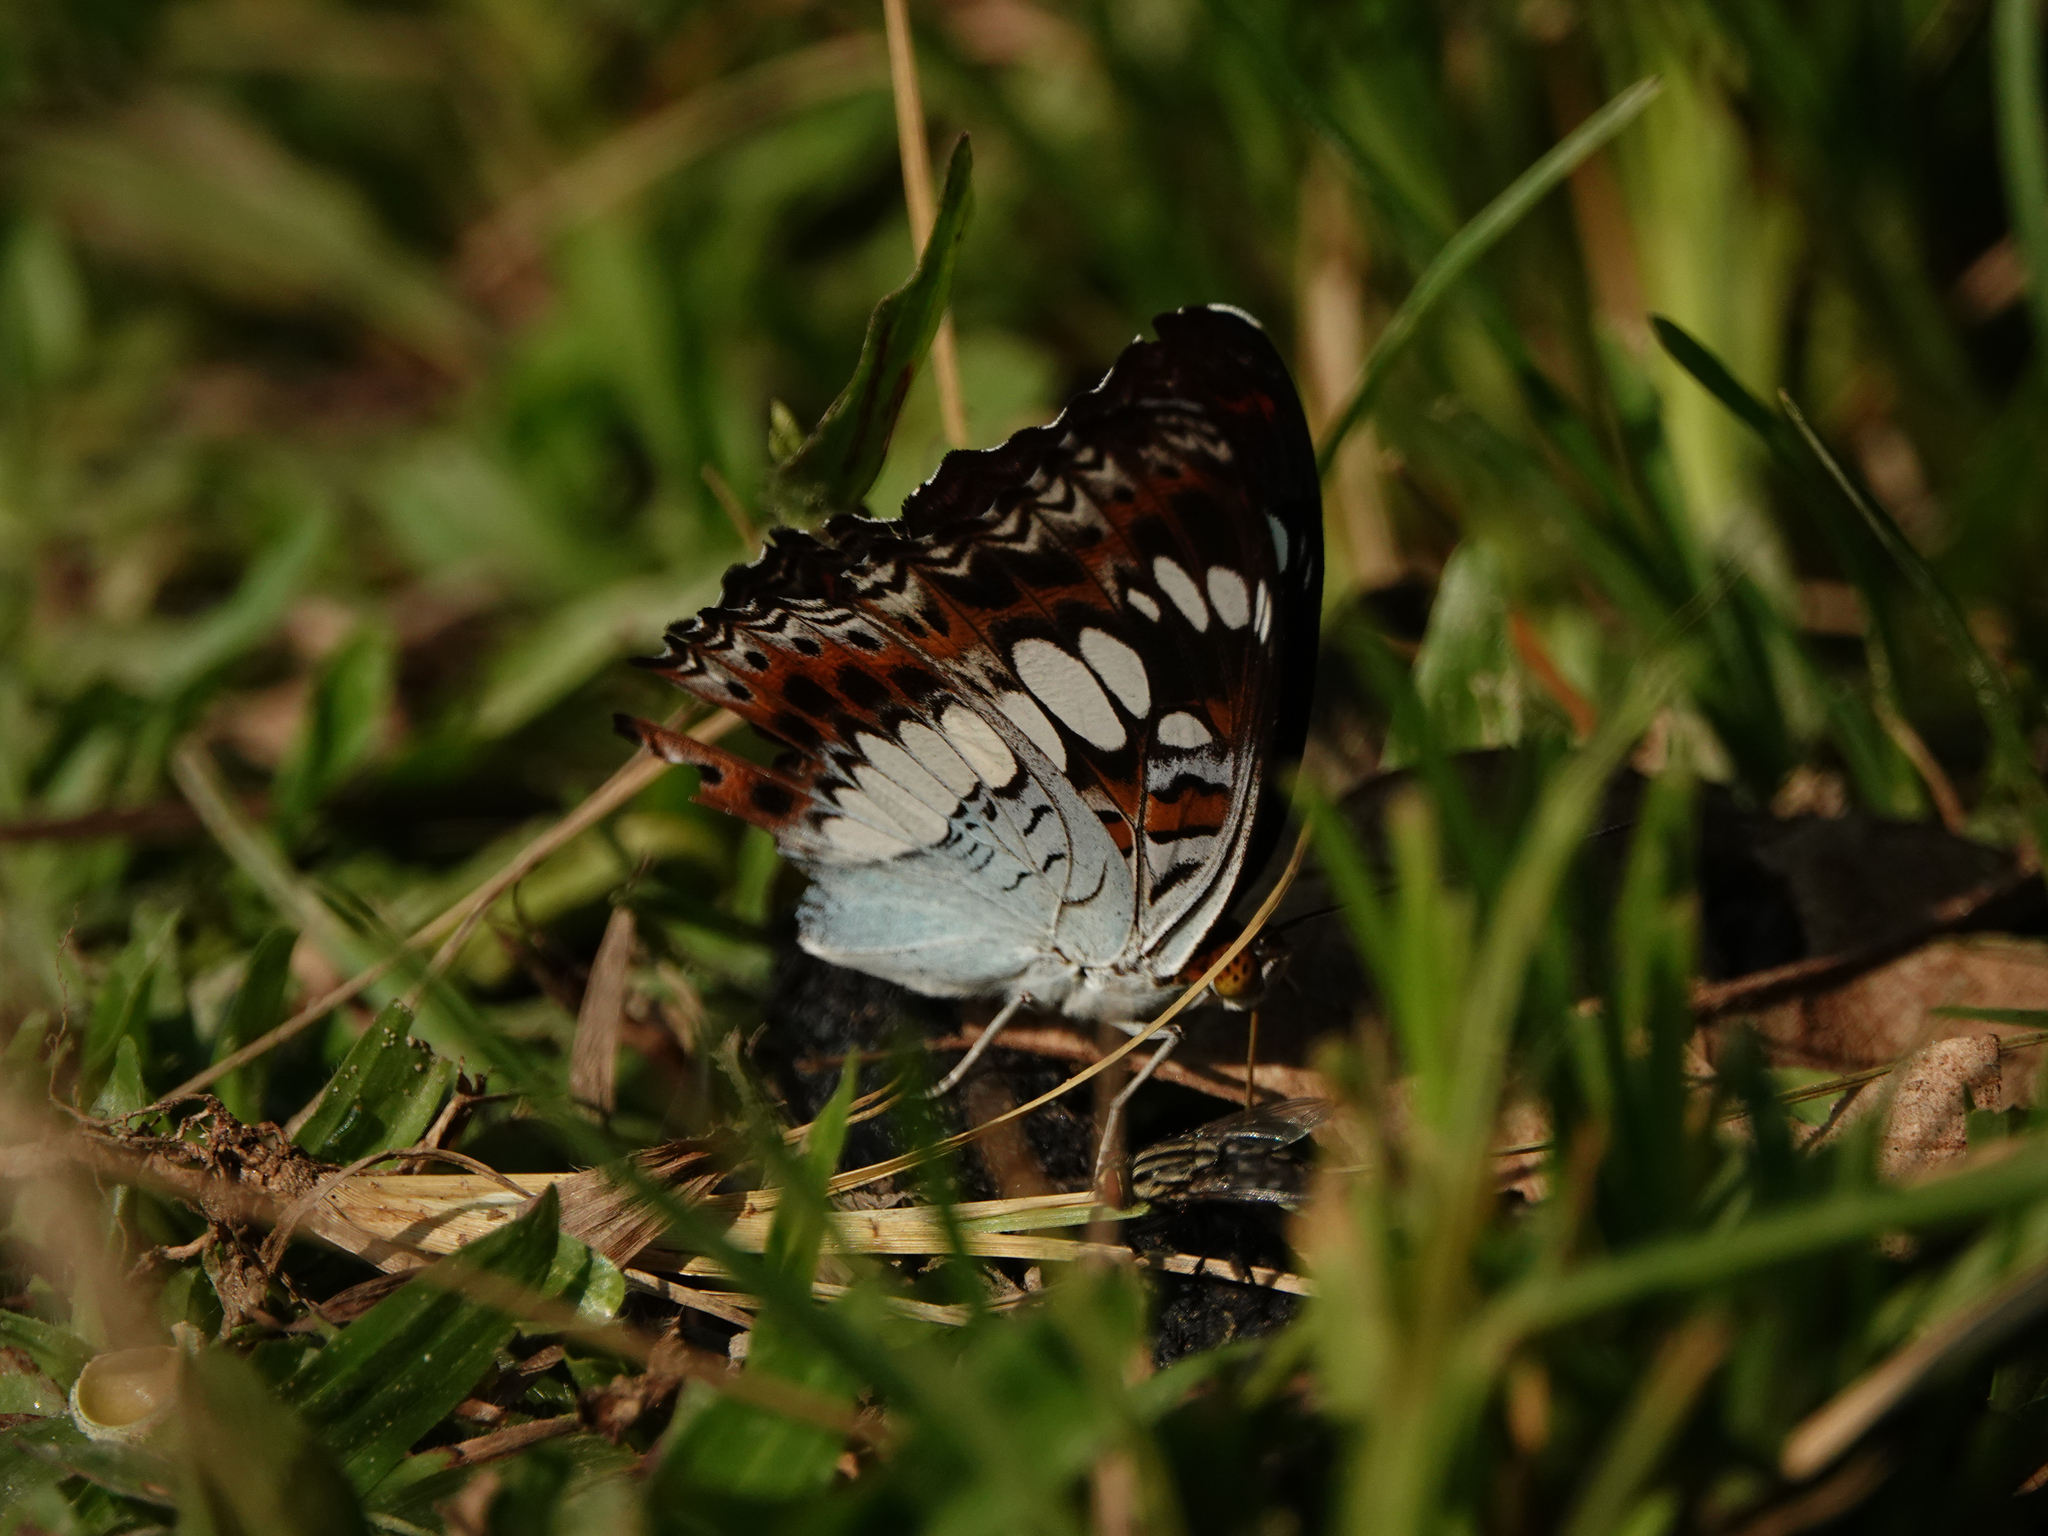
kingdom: Animalia
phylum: Arthropoda
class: Insecta
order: Lepidoptera
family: Nymphalidae
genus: Limenitis
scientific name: Limenitis Moduza procris
